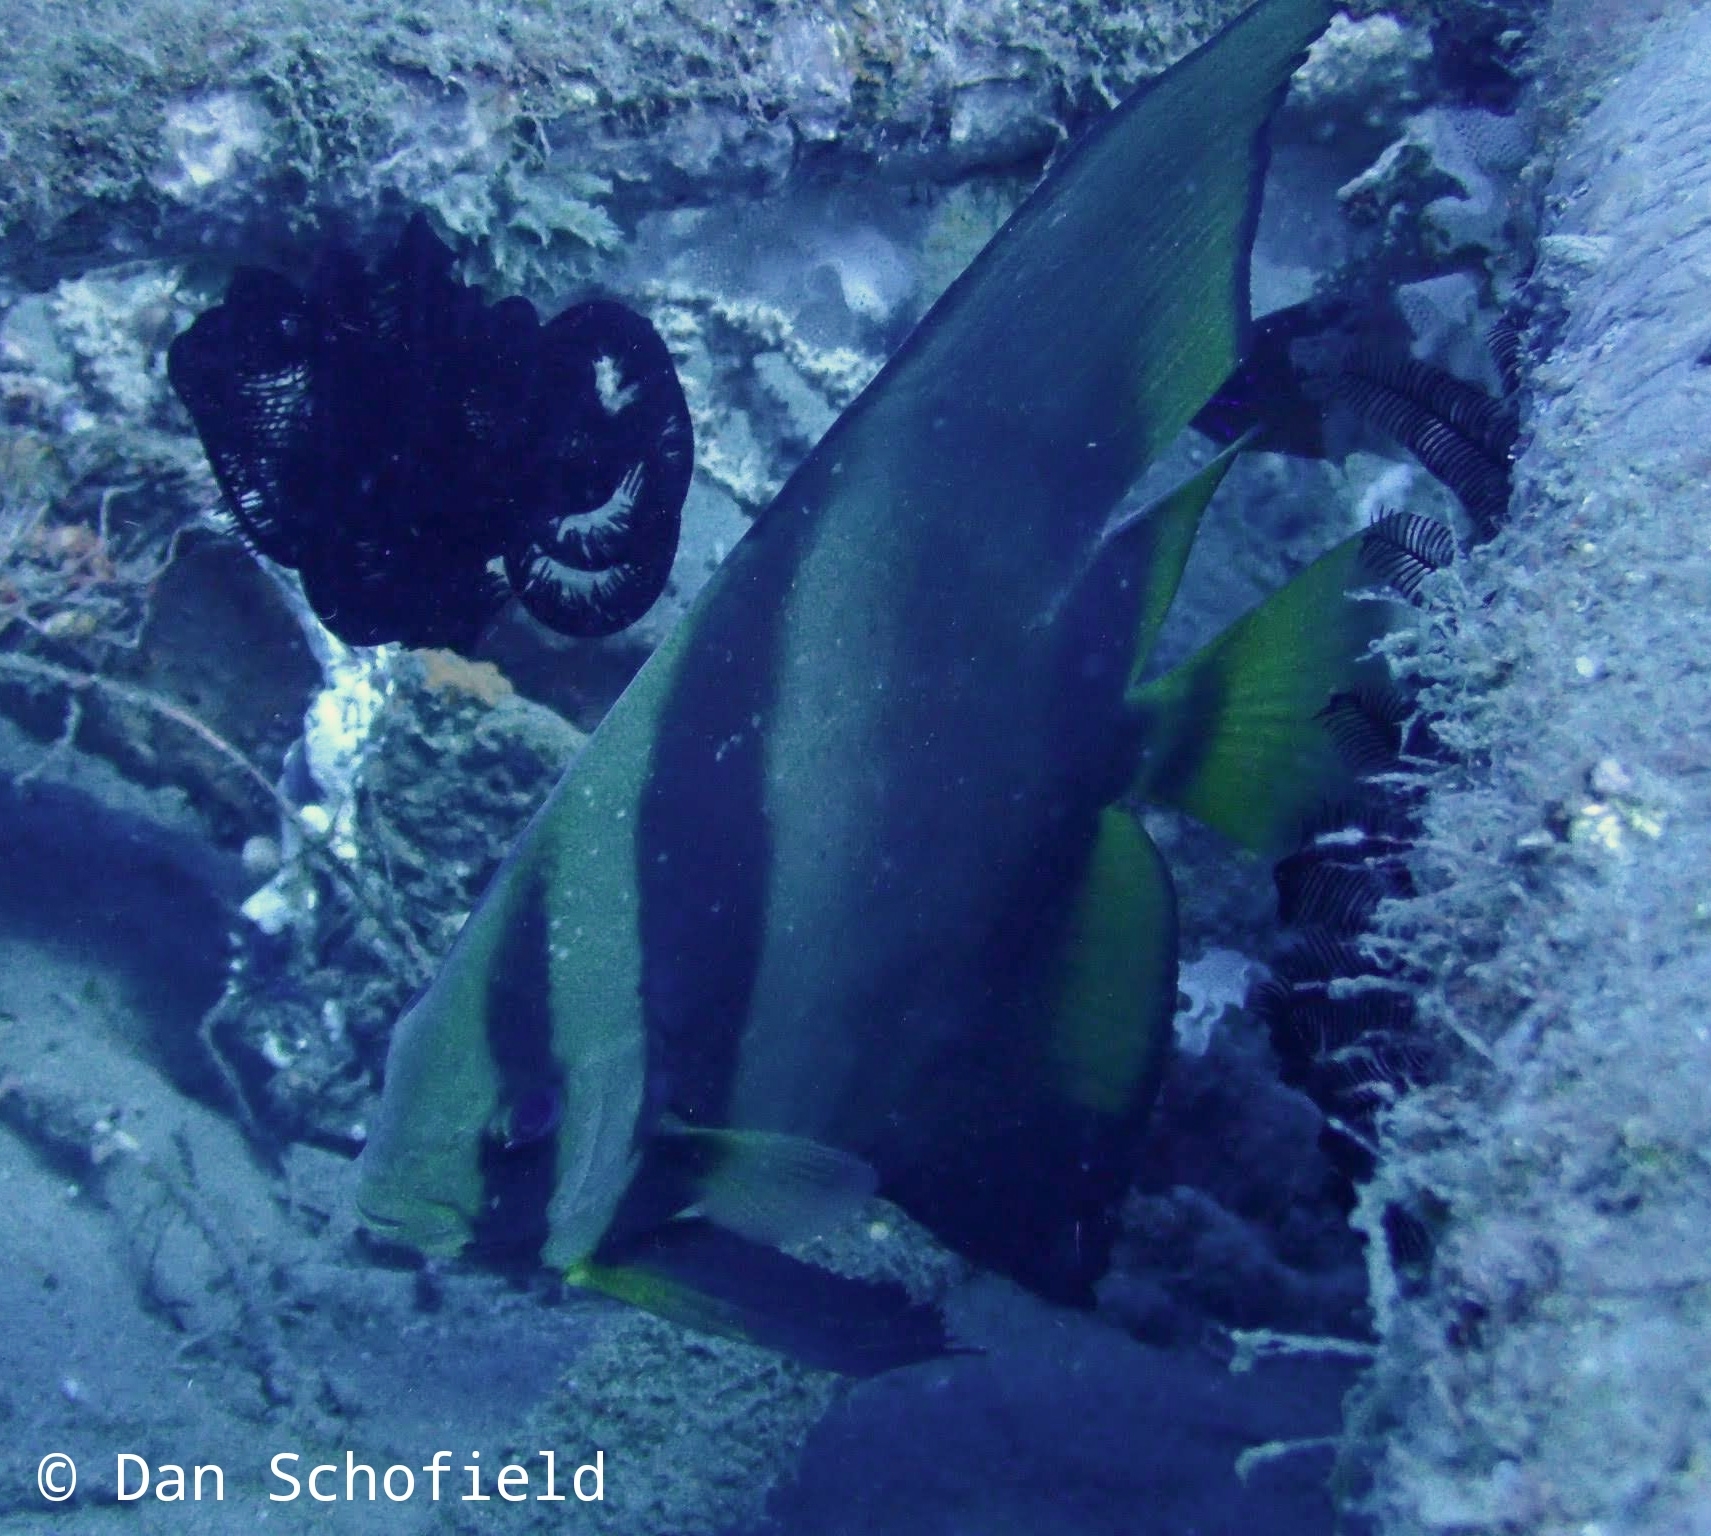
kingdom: Animalia
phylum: Chordata
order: Perciformes
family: Ephippidae
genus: Platax
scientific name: Platax teira
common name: Longfin baitfish
